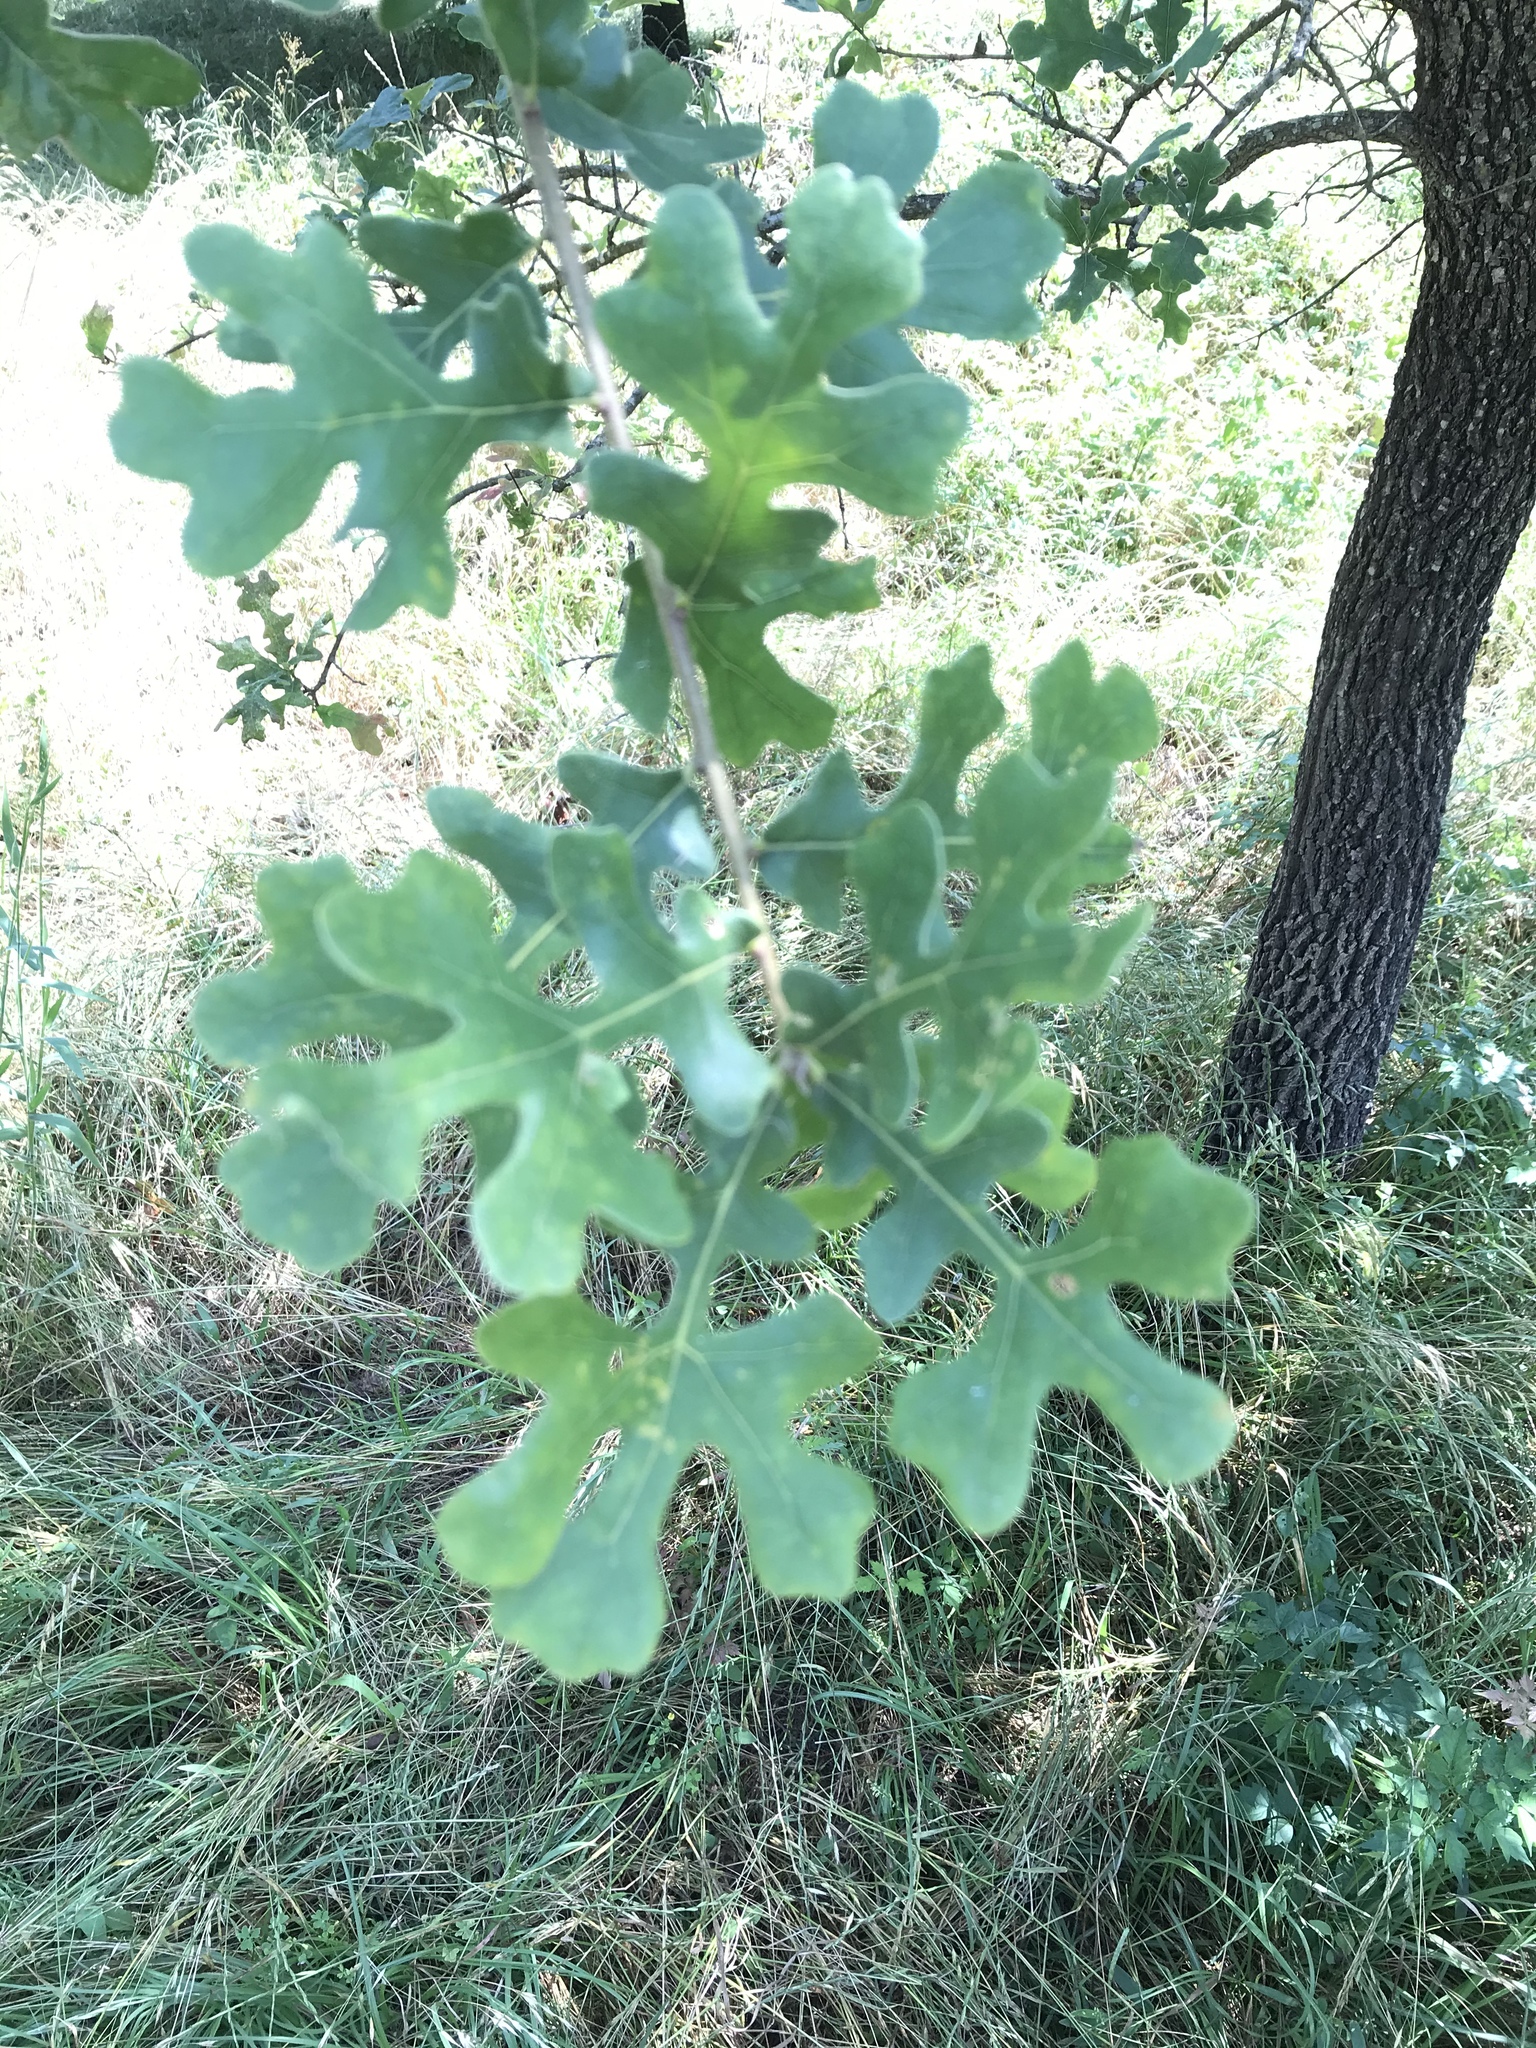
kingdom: Plantae
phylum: Tracheophyta
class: Magnoliopsida
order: Fagales
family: Fagaceae
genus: Quercus
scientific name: Quercus stellata
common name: Post oak
